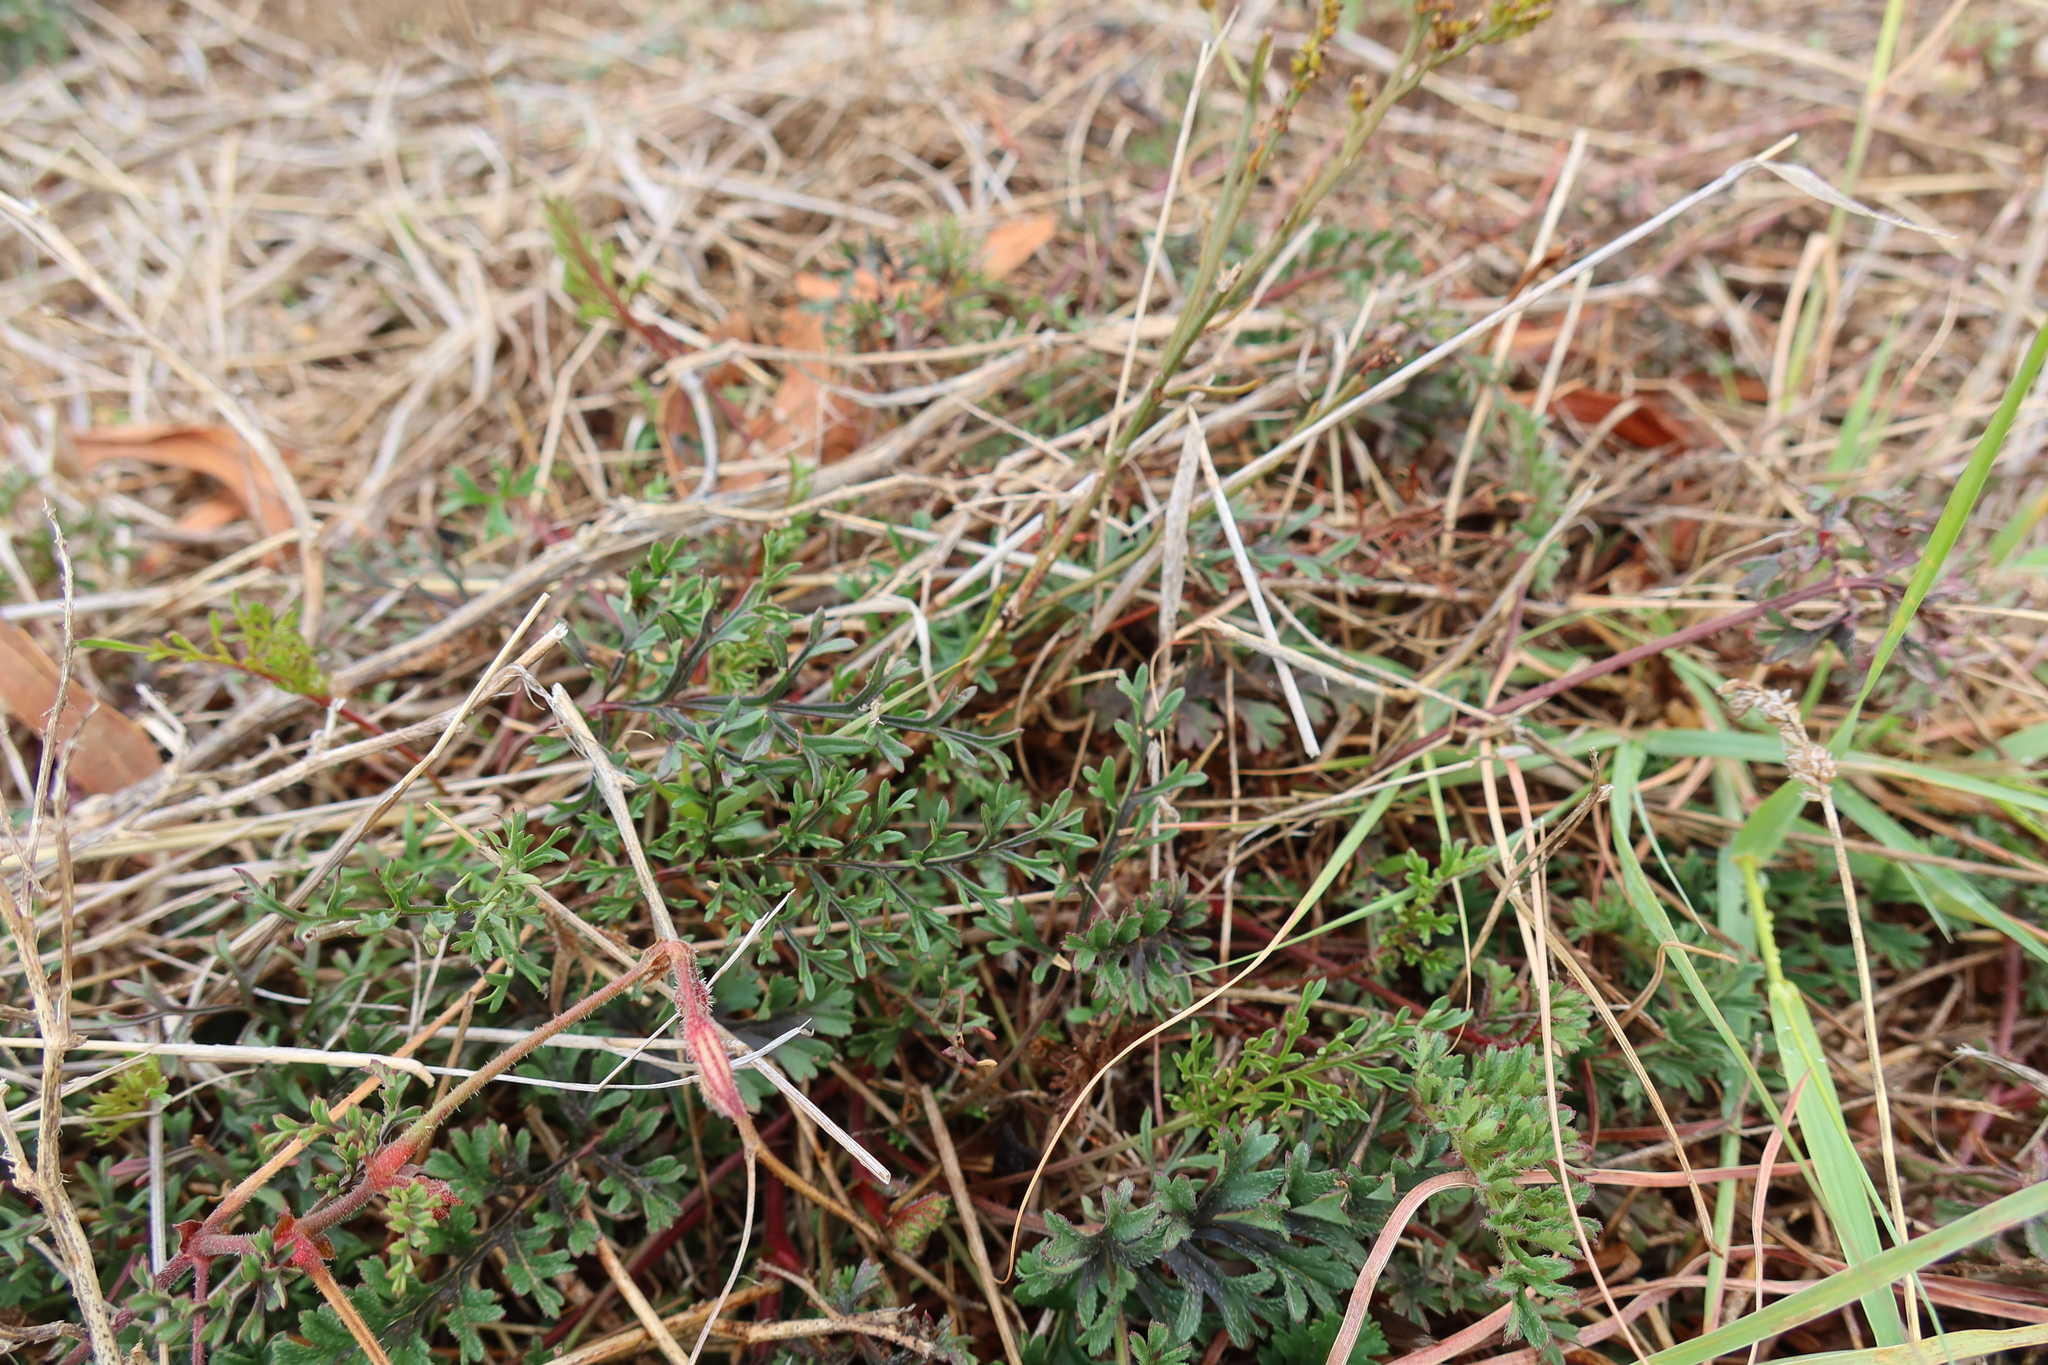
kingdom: Plantae
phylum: Tracheophyta
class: Magnoliopsida
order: Geraniales
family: Geraniaceae
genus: Pelargonium
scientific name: Pelargonium myrrhifolium
